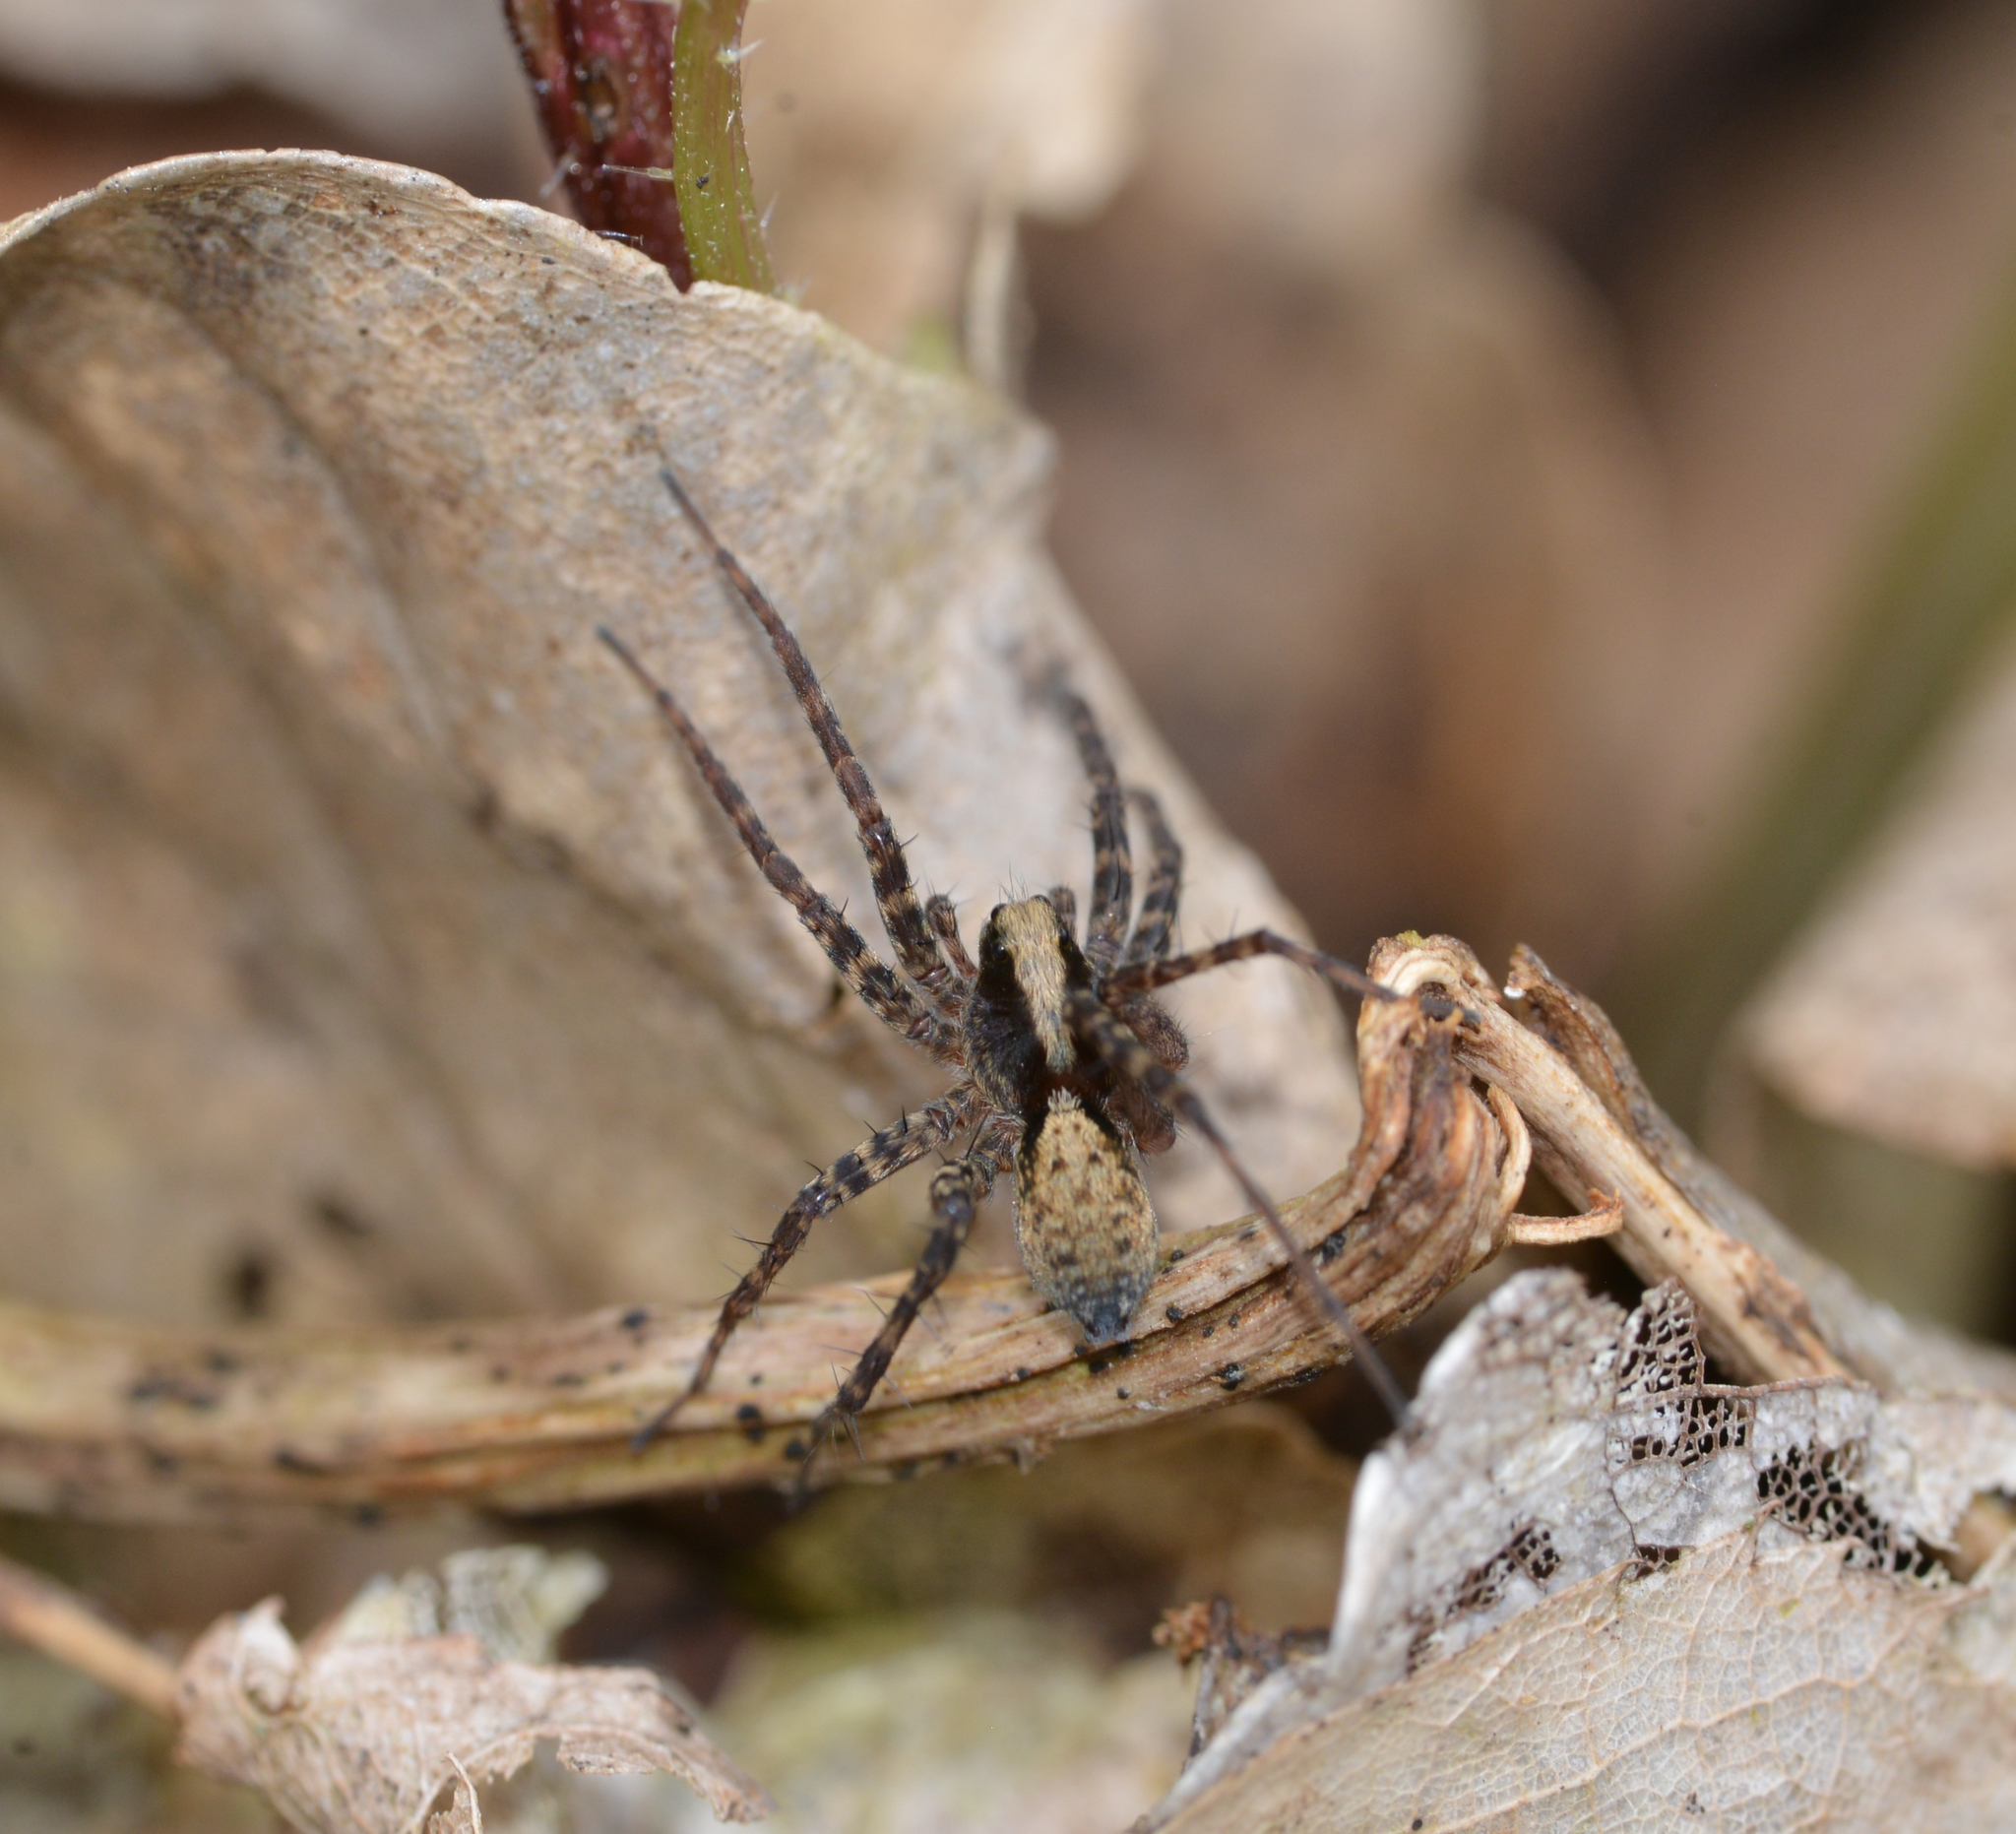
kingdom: Animalia
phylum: Arthropoda
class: Arachnida
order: Araneae
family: Lycosidae
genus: Pardosa
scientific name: Pardosa
